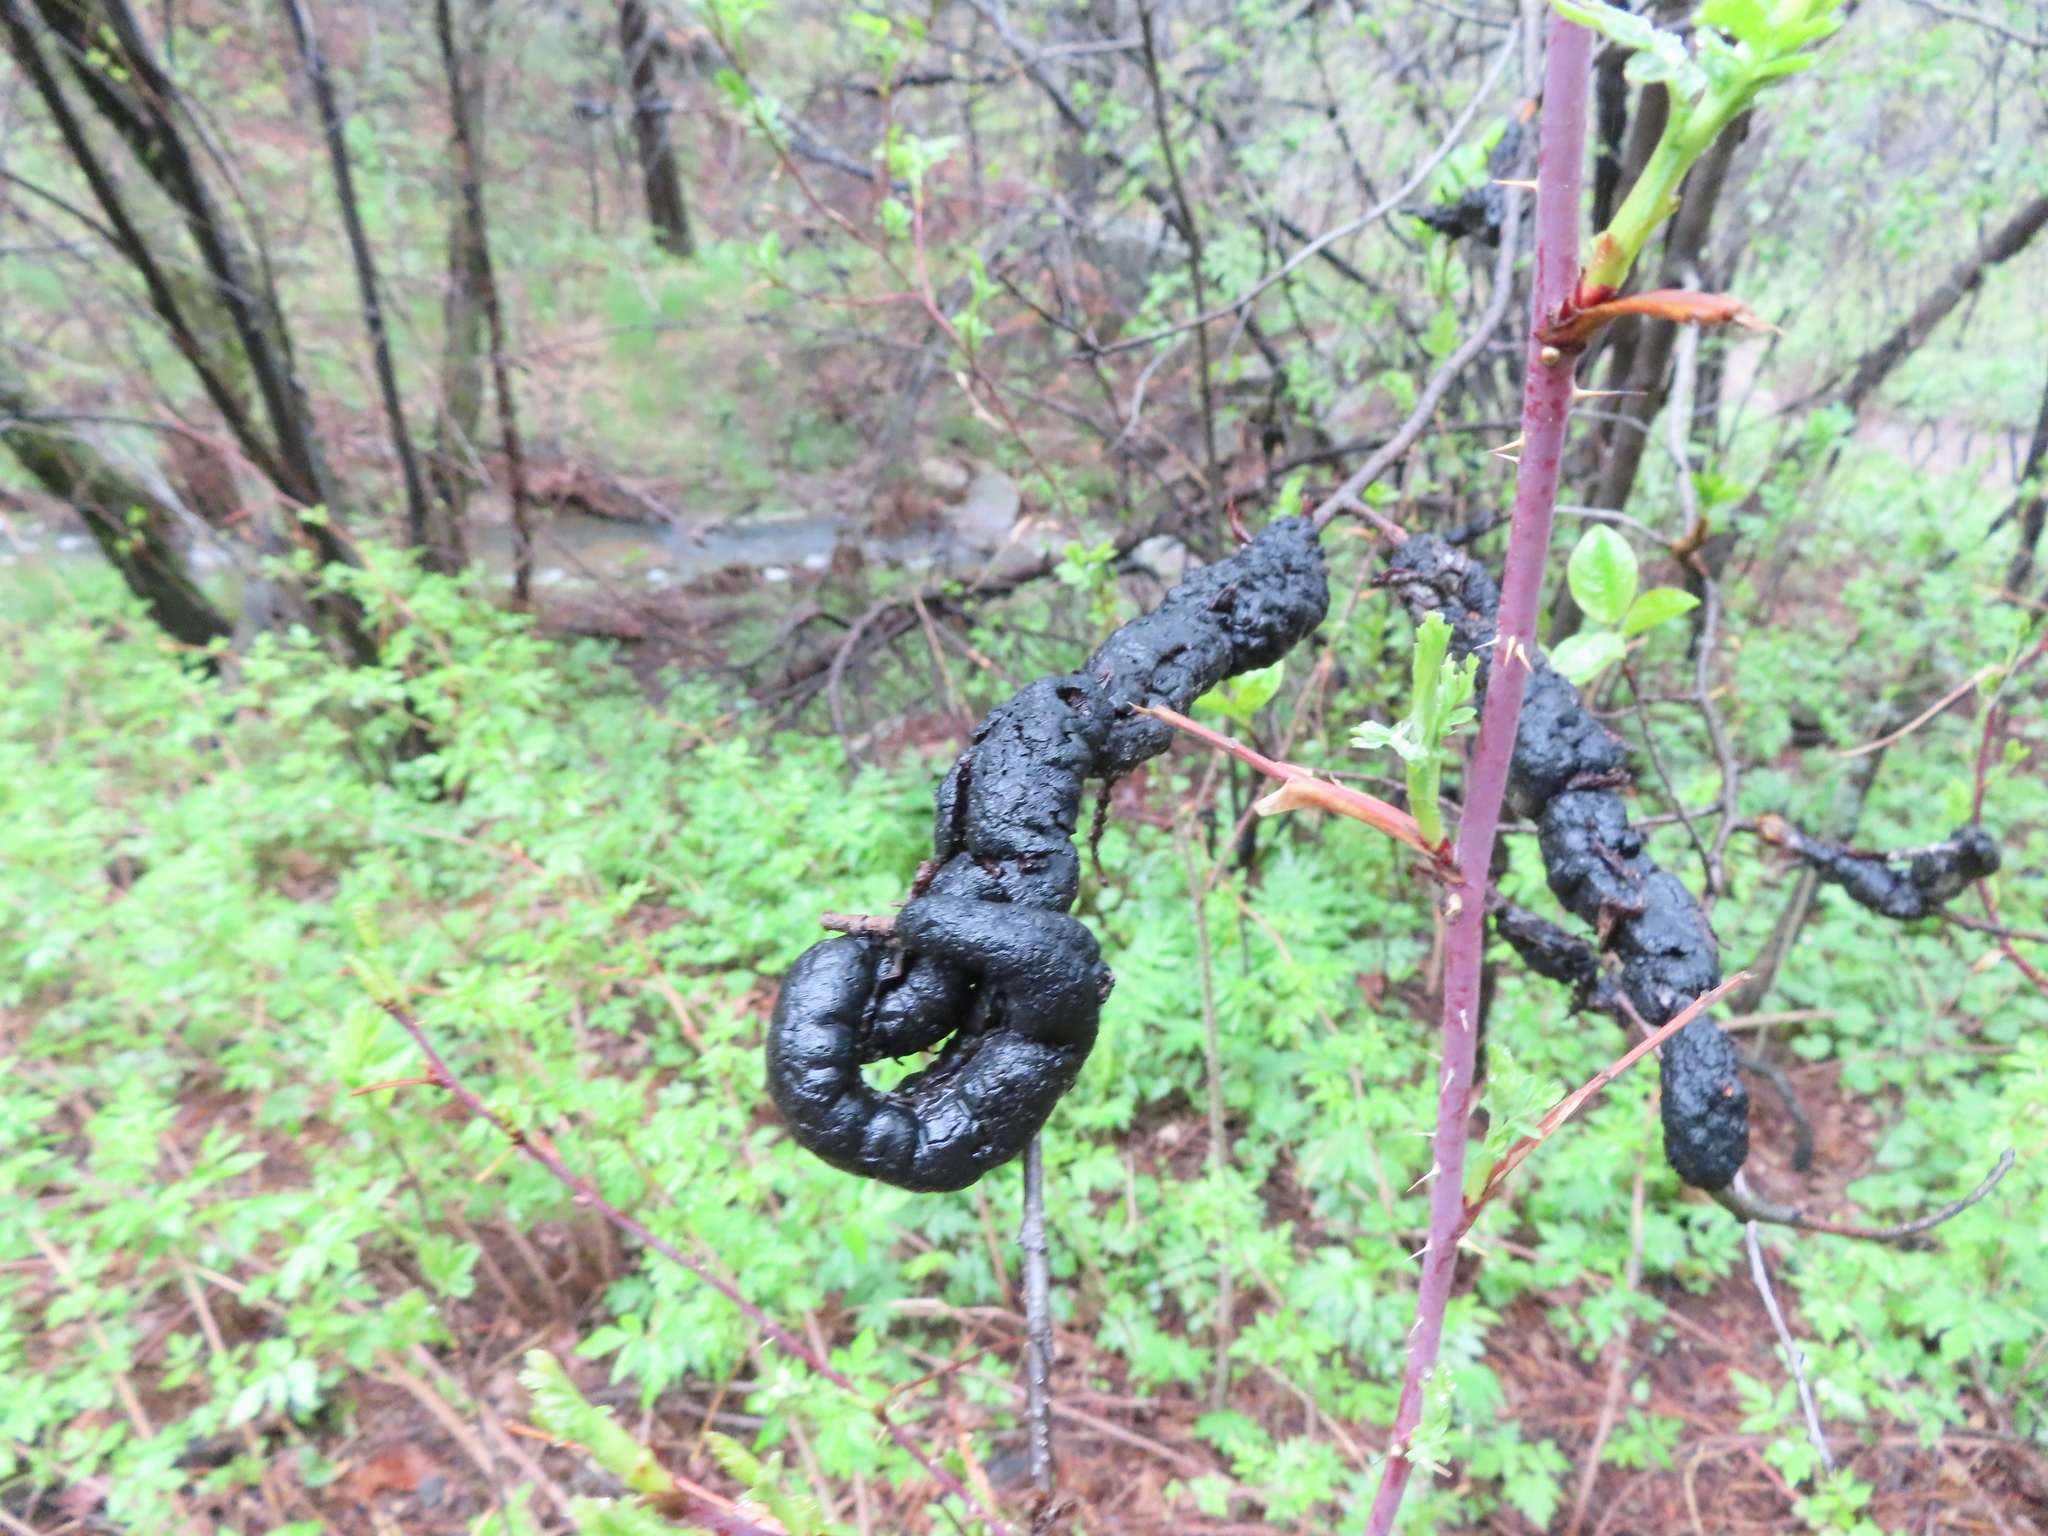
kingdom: Fungi
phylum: Ascomycota
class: Dothideomycetes
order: Venturiales
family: Venturiaceae
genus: Apiosporina
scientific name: Apiosporina morbosa
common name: Black knot
